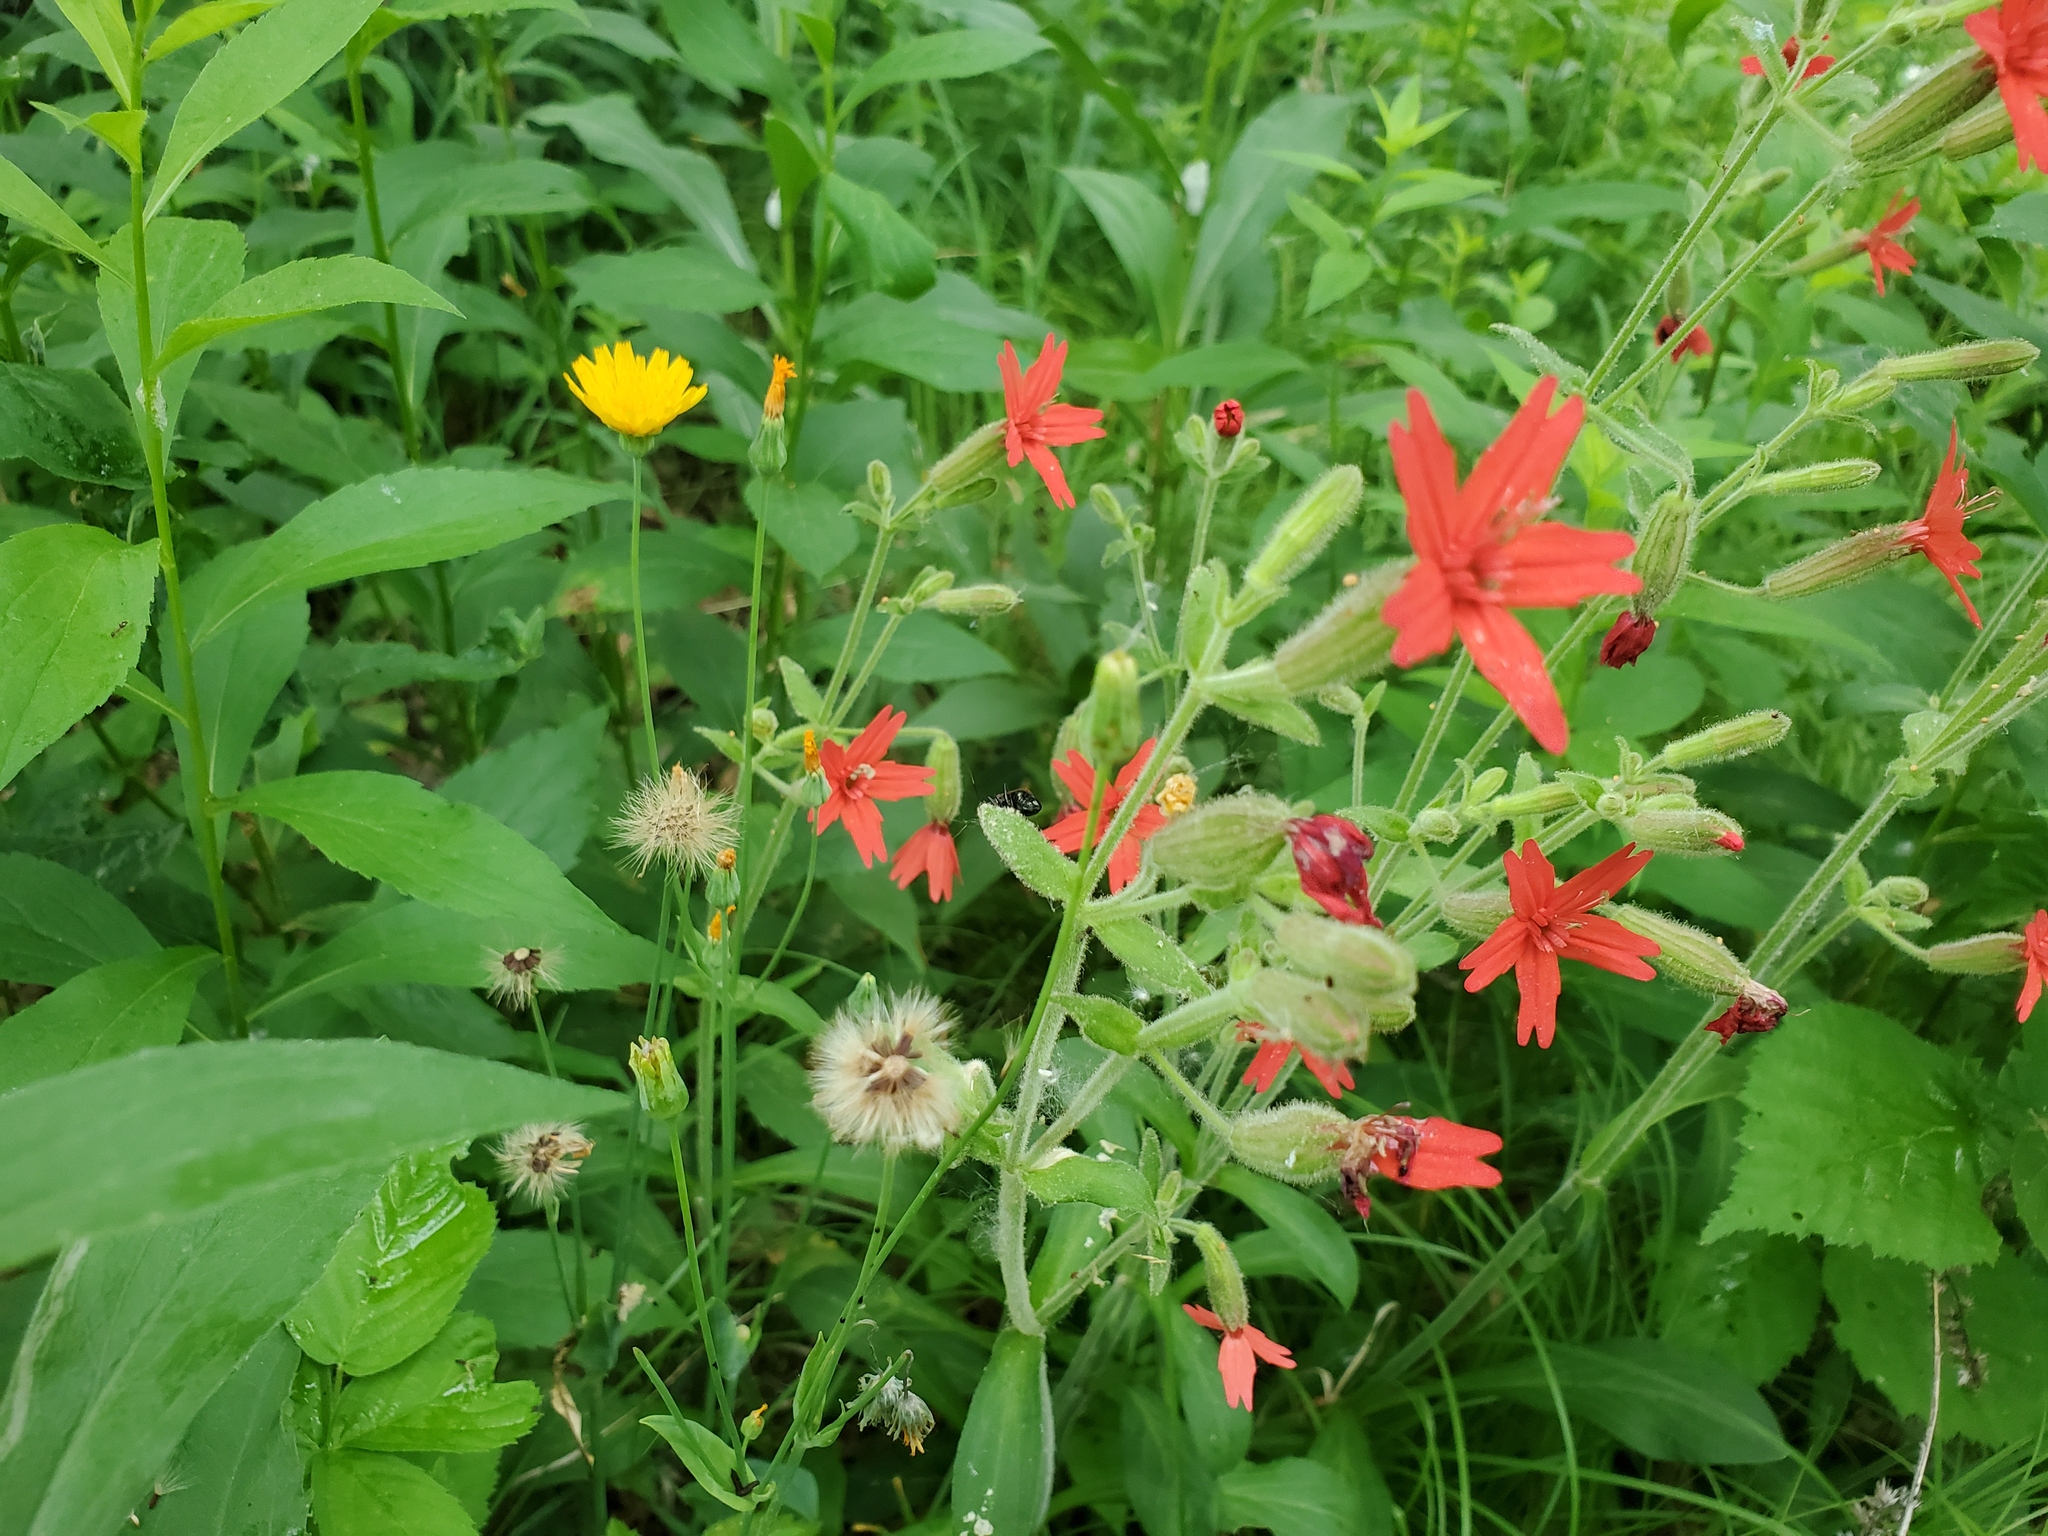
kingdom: Plantae
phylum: Tracheophyta
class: Magnoliopsida
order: Asterales
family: Asteraceae
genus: Krigia
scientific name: Krigia biflora
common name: Orange dwarf-dandelion
